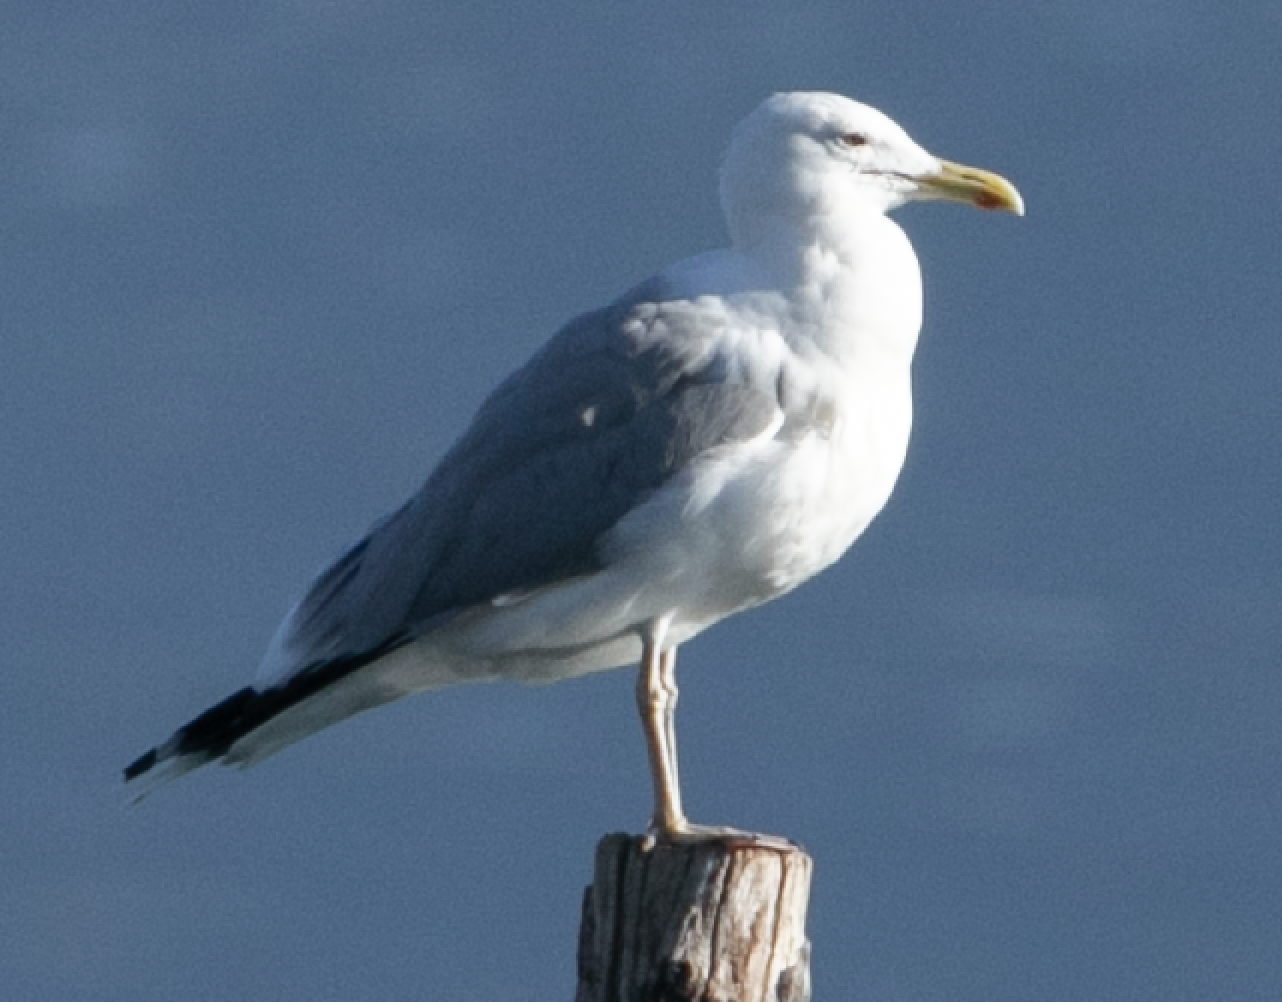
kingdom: Animalia
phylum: Chordata
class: Aves
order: Charadriiformes
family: Laridae
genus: Larus
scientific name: Larus cachinnans
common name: Caspian gull
